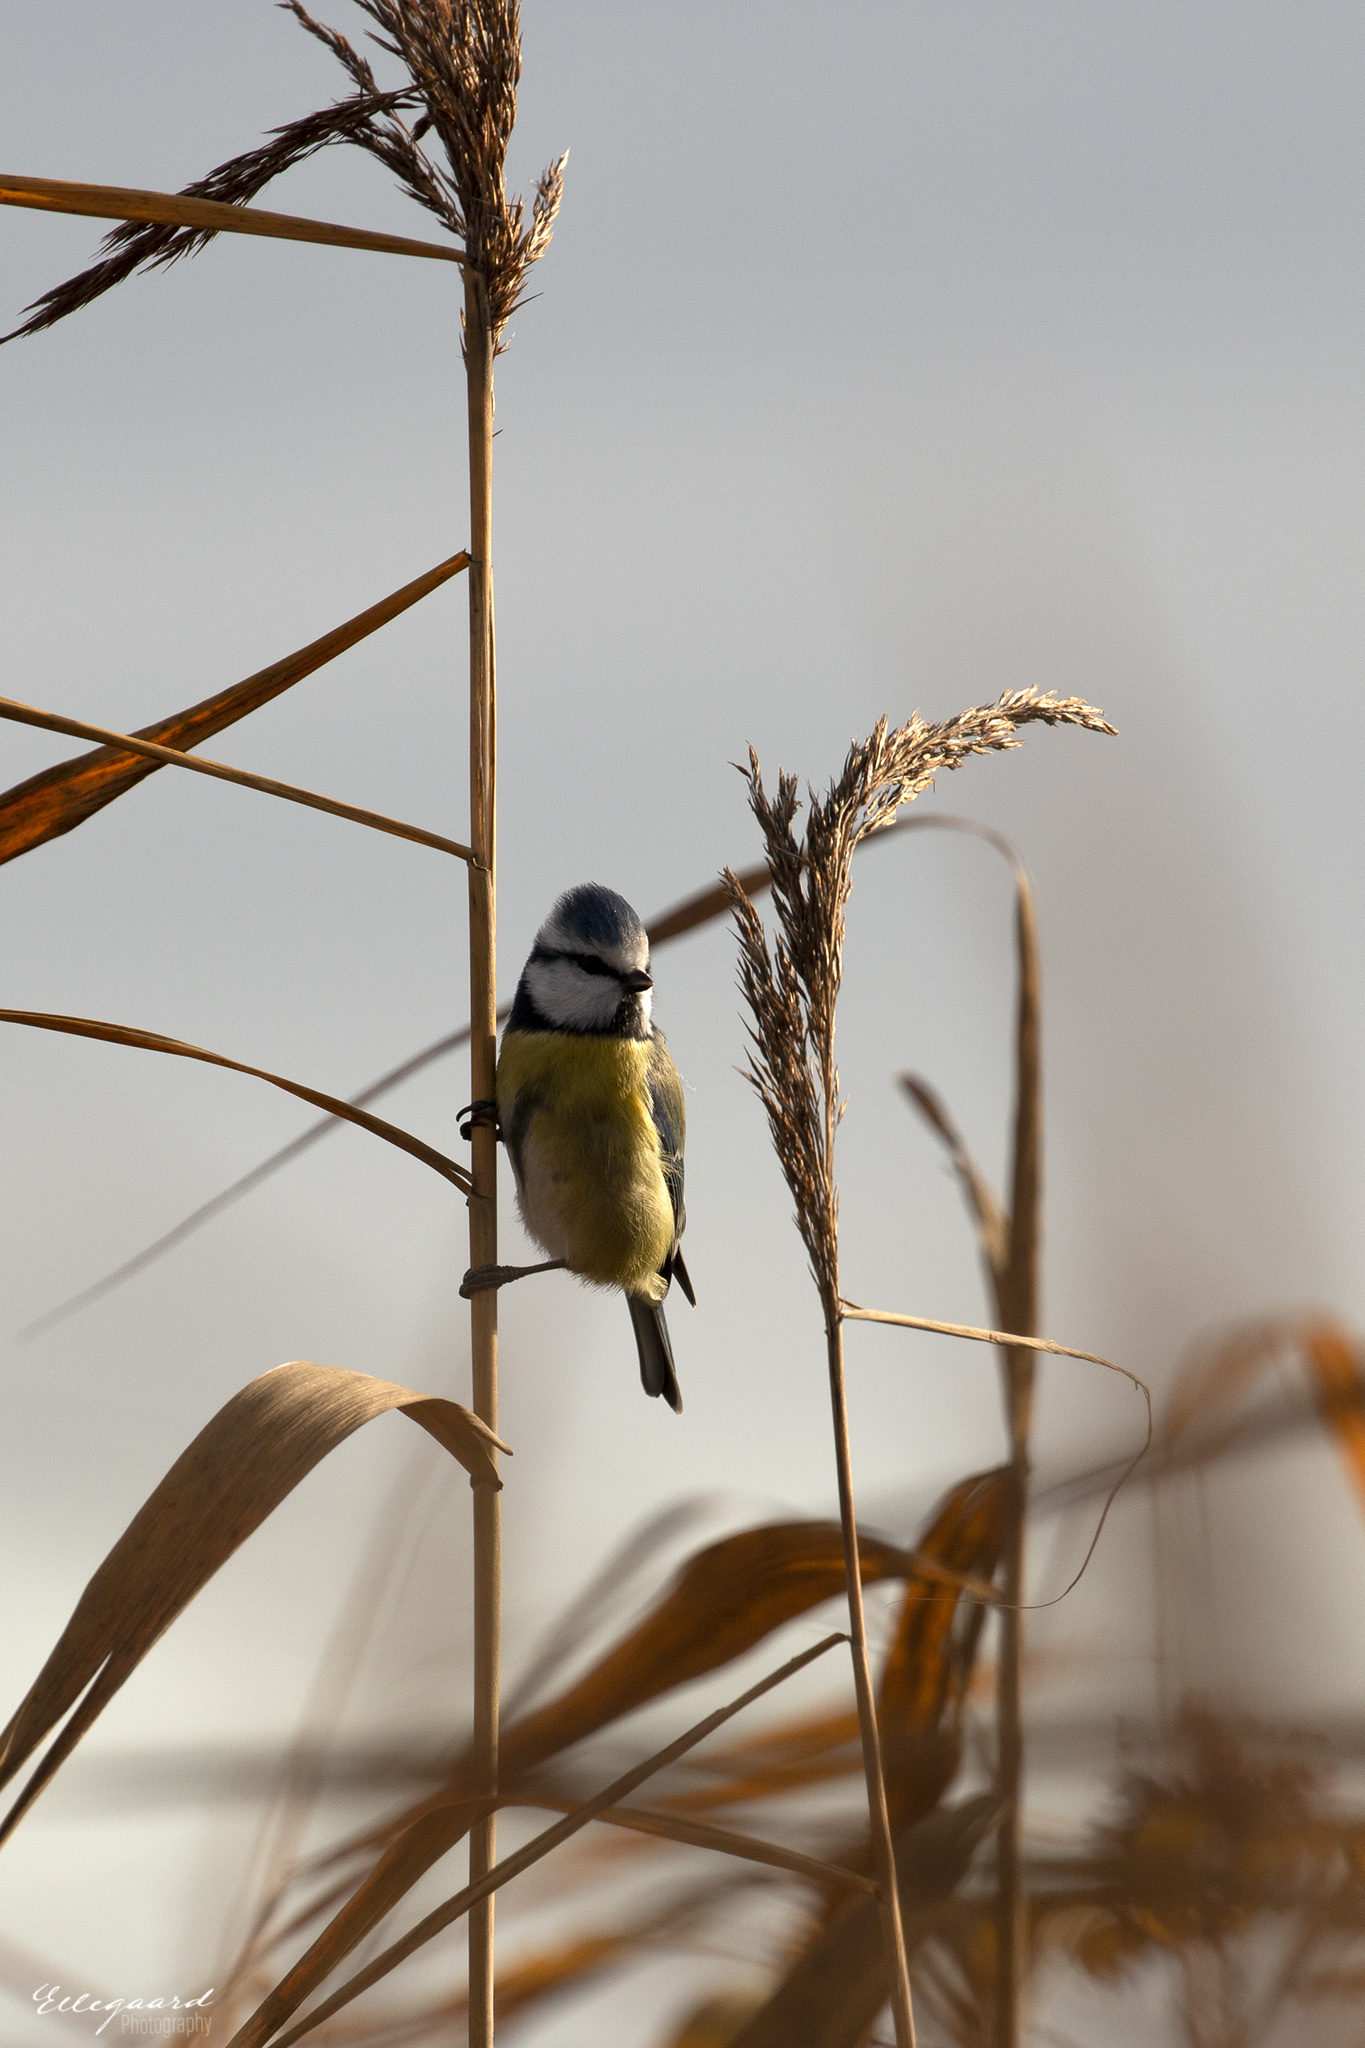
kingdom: Animalia
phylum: Chordata
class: Aves
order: Passeriformes
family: Paridae
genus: Cyanistes
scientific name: Cyanistes caeruleus
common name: Eurasian blue tit
